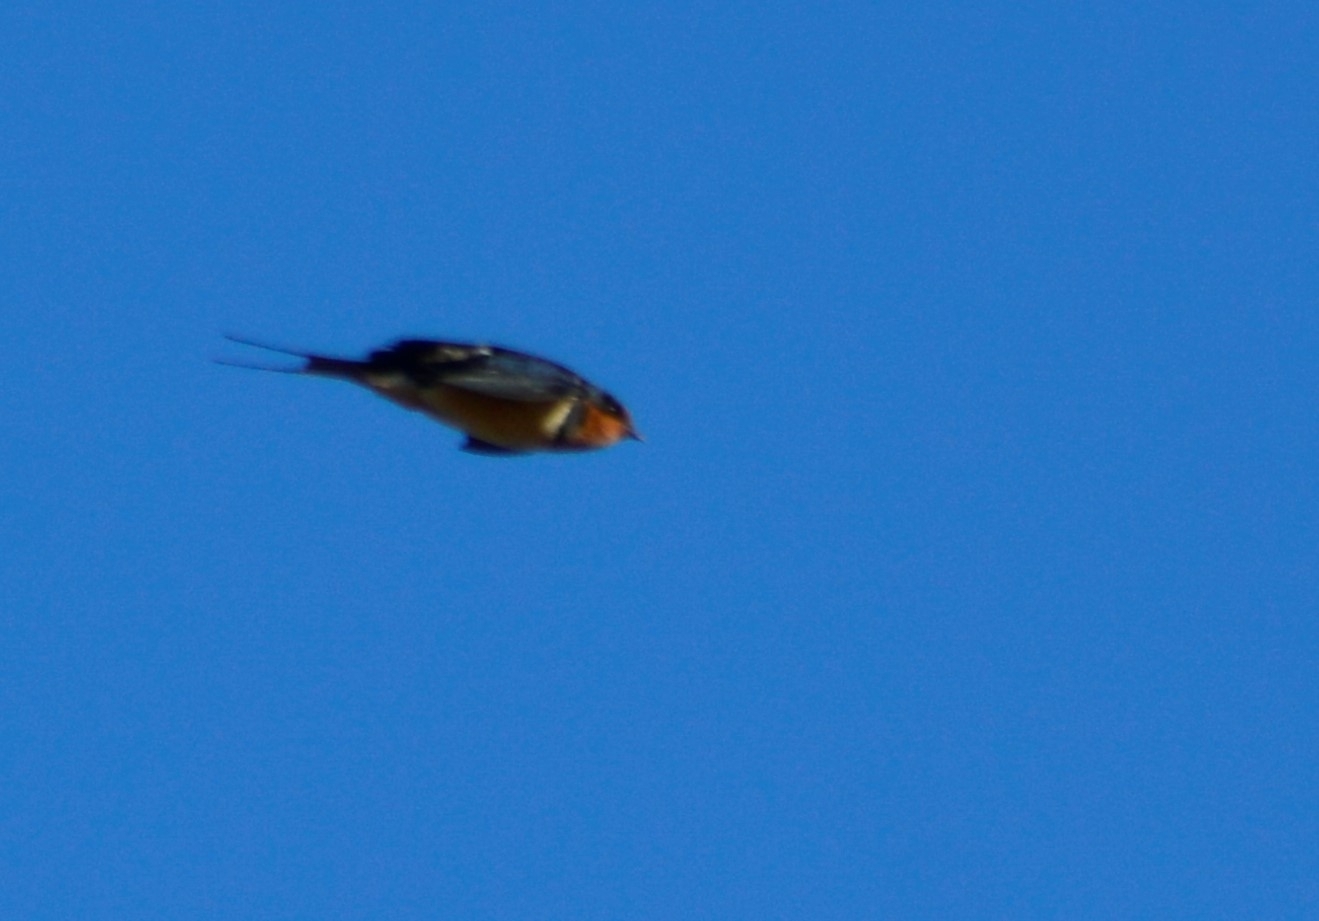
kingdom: Animalia
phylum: Chordata
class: Aves
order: Passeriformes
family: Hirundinidae
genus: Hirundo
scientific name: Hirundo rustica
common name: Barn swallow
